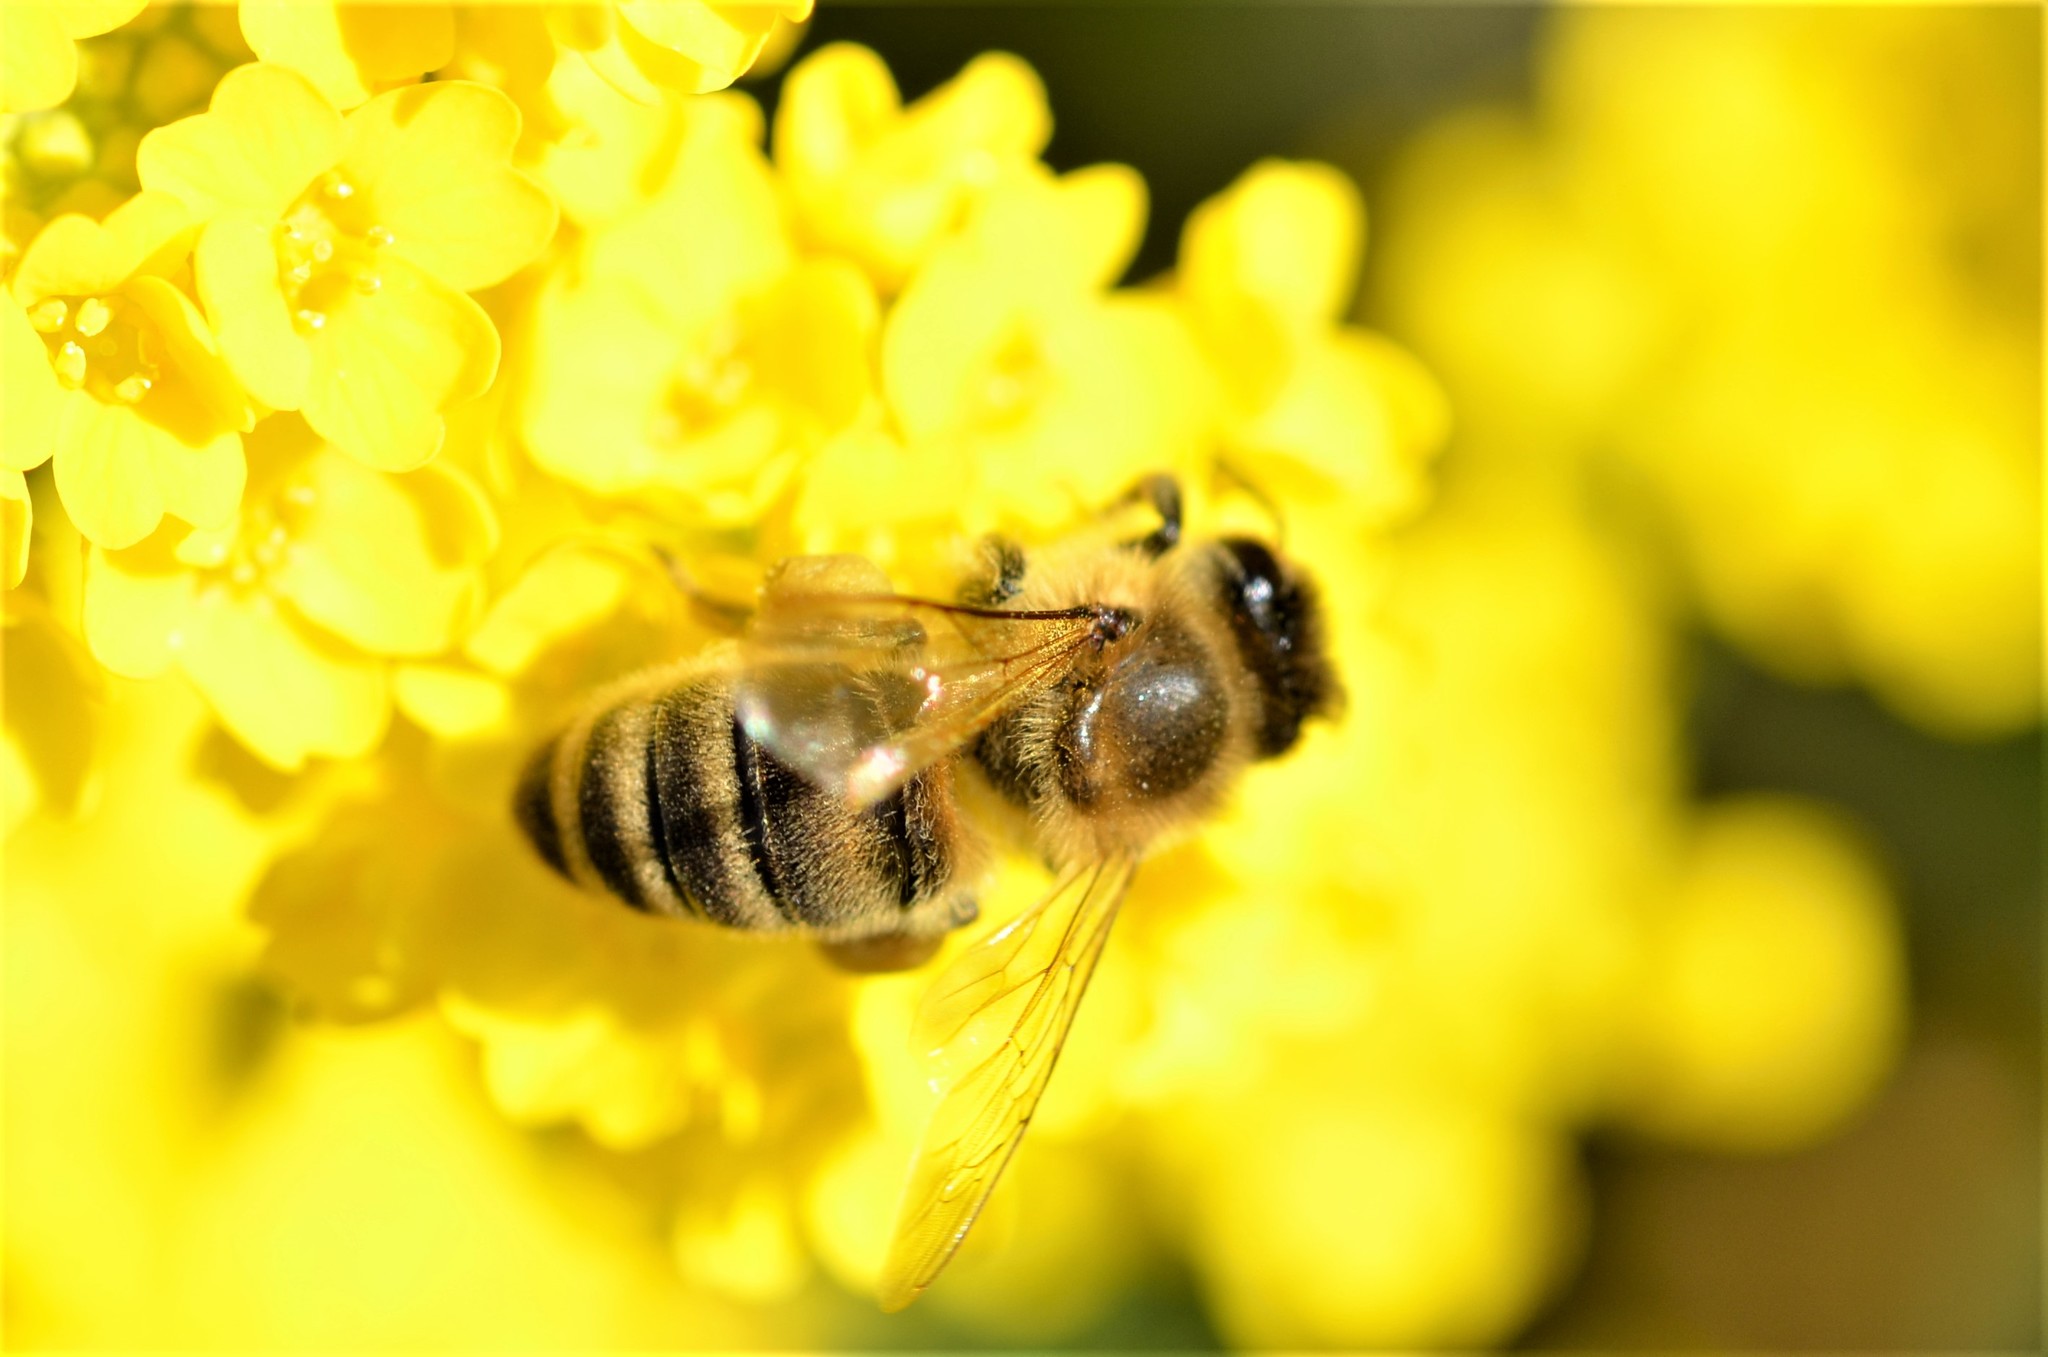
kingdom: Animalia
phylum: Arthropoda
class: Insecta
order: Hymenoptera
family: Apidae
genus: Apis
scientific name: Apis mellifera
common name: Honey bee
